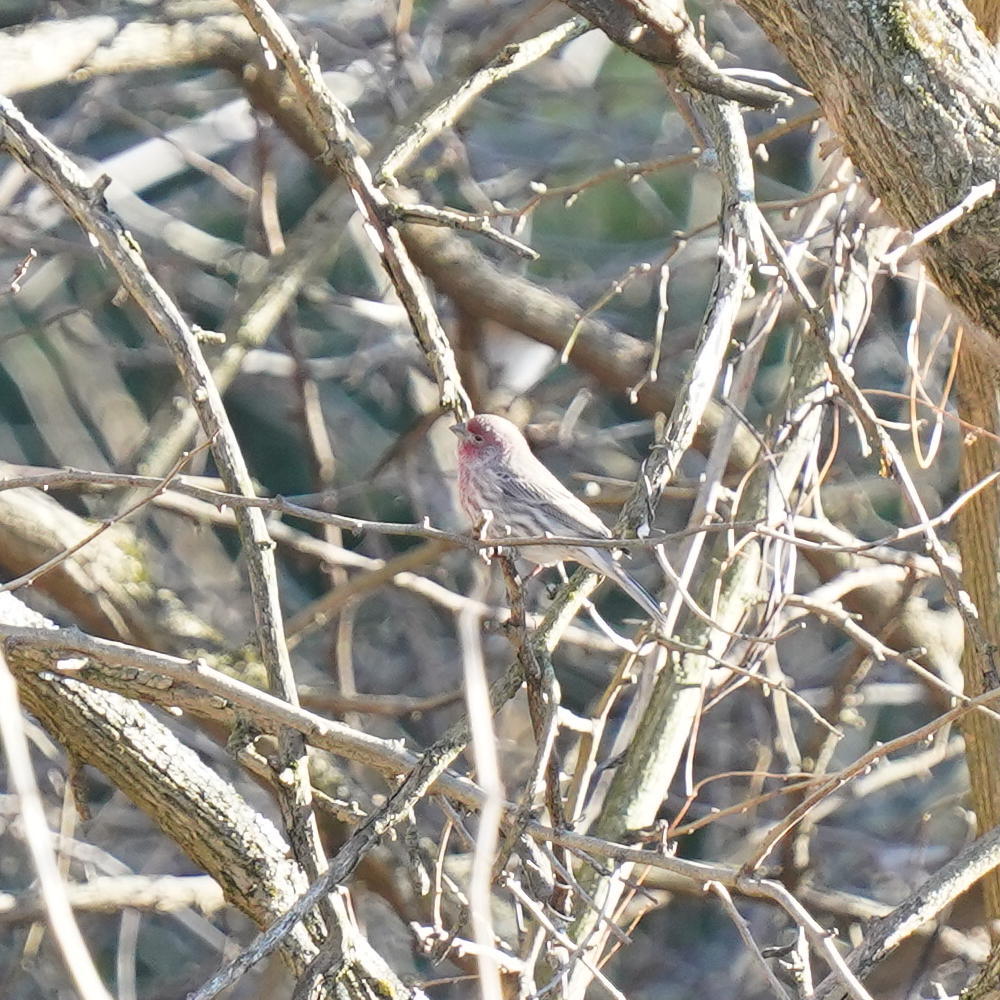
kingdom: Animalia
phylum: Chordata
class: Aves
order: Passeriformes
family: Fringillidae
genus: Haemorhous
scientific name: Haemorhous mexicanus
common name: House finch
